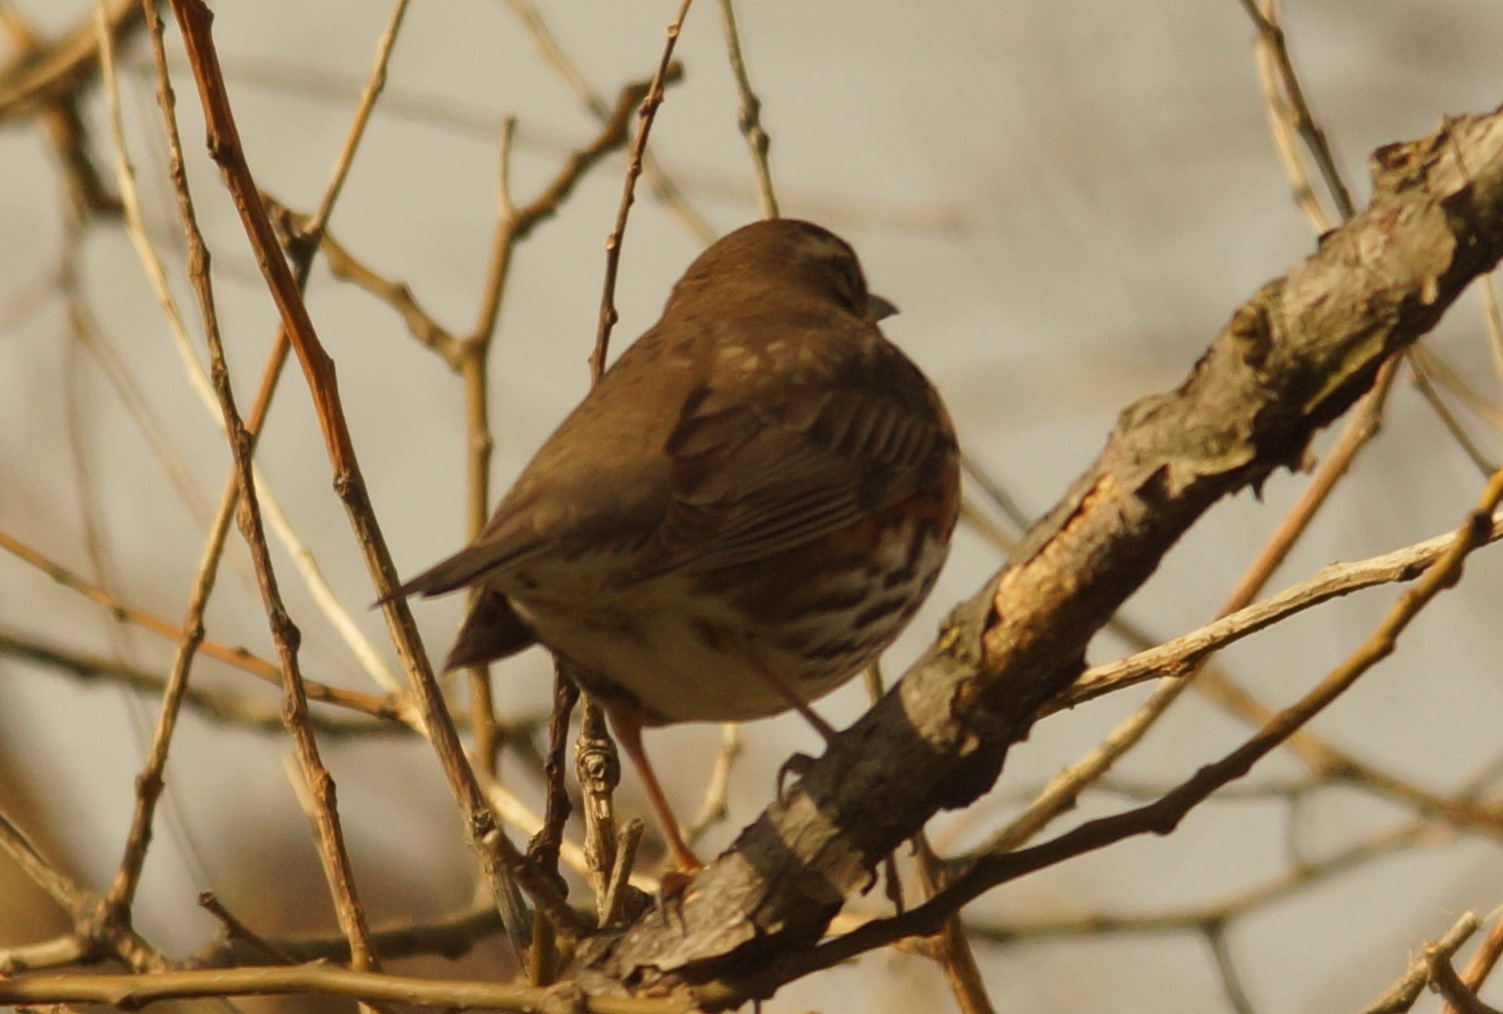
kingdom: Animalia
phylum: Chordata
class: Aves
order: Passeriformes
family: Turdidae
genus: Turdus
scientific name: Turdus iliacus
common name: Redwing
